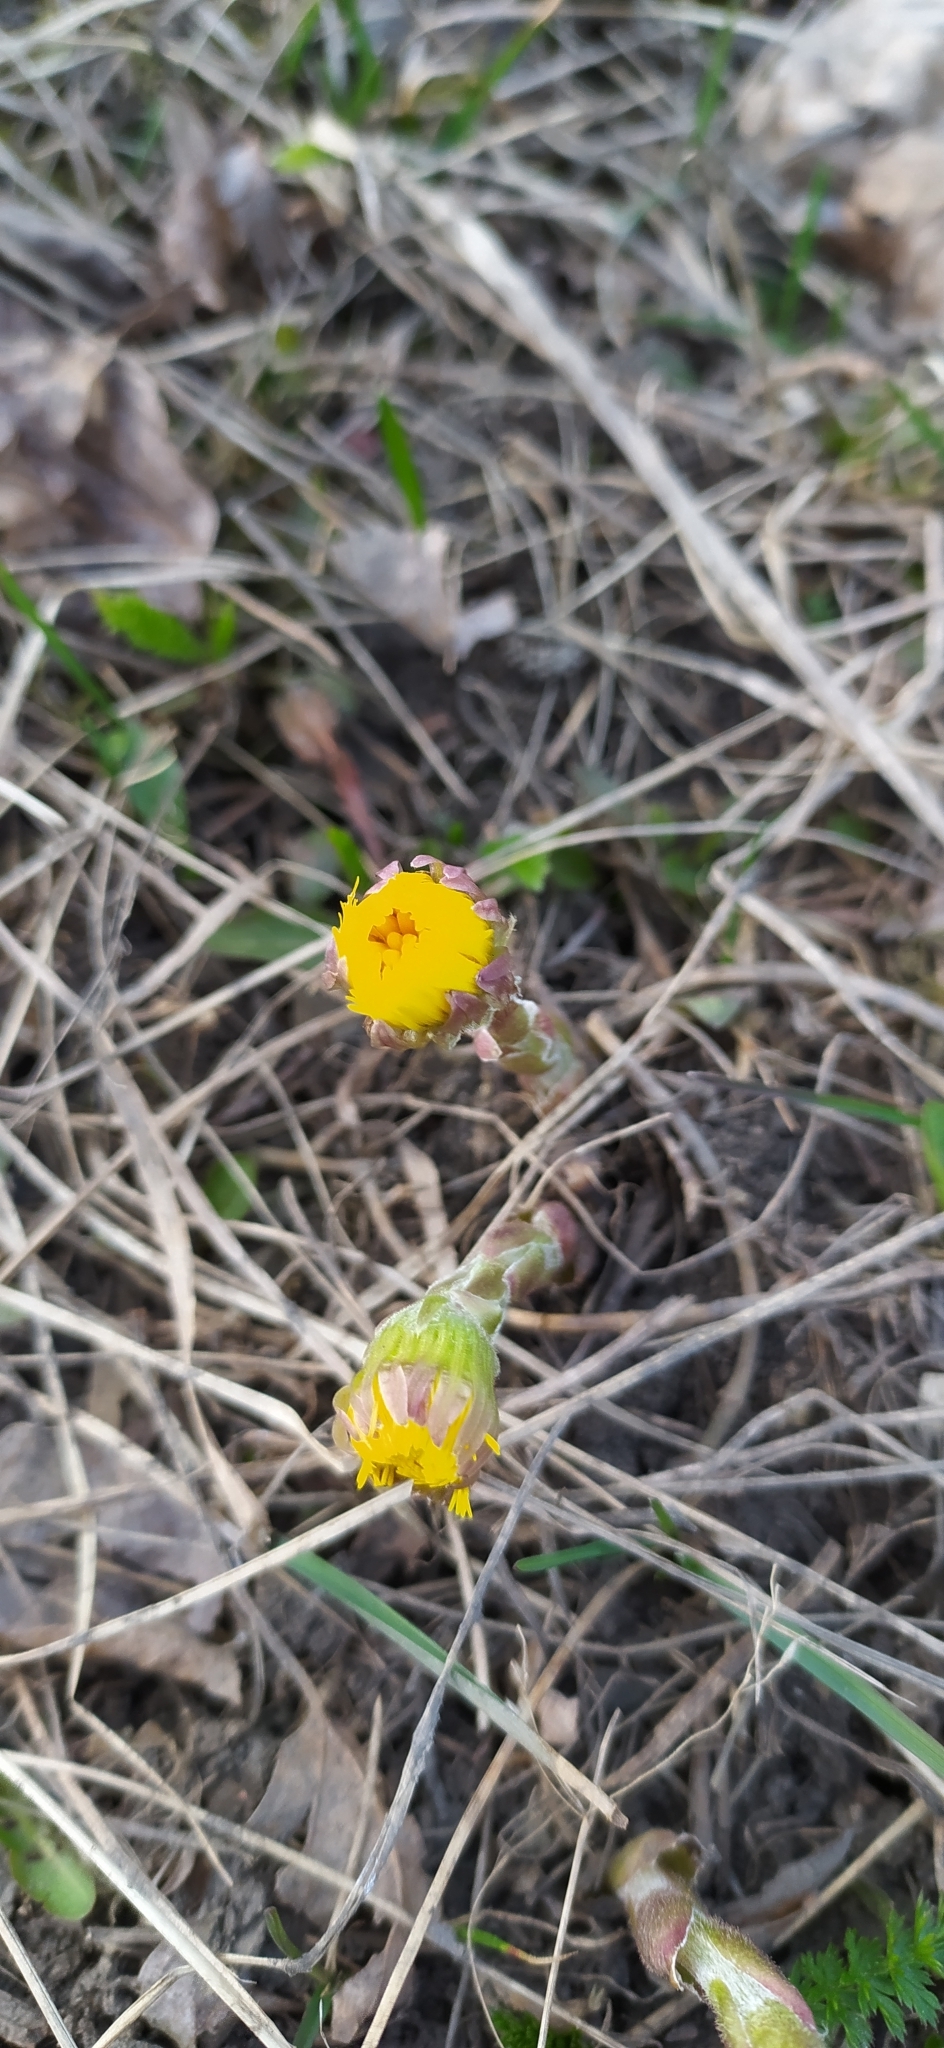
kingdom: Plantae
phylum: Tracheophyta
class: Magnoliopsida
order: Asterales
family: Asteraceae
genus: Tussilago
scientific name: Tussilago farfara
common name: Coltsfoot
